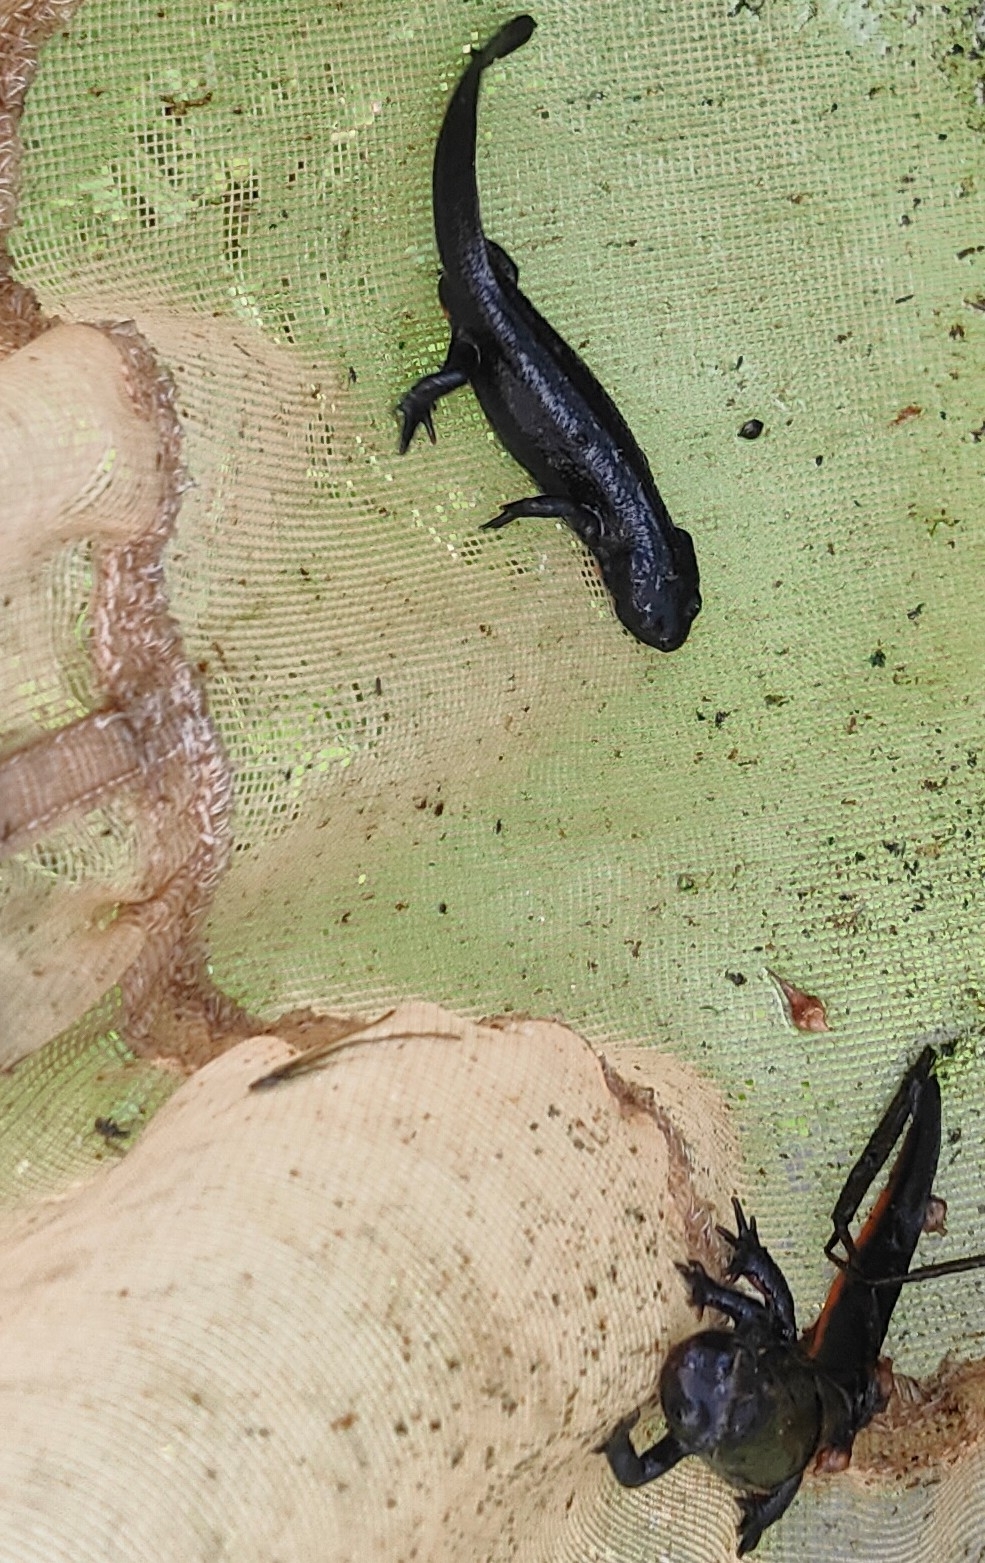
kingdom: Animalia
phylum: Chordata
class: Amphibia
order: Caudata
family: Salamandridae
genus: Cynops
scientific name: Cynops pyrrhogaster
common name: Japanese fire-bellied newt
